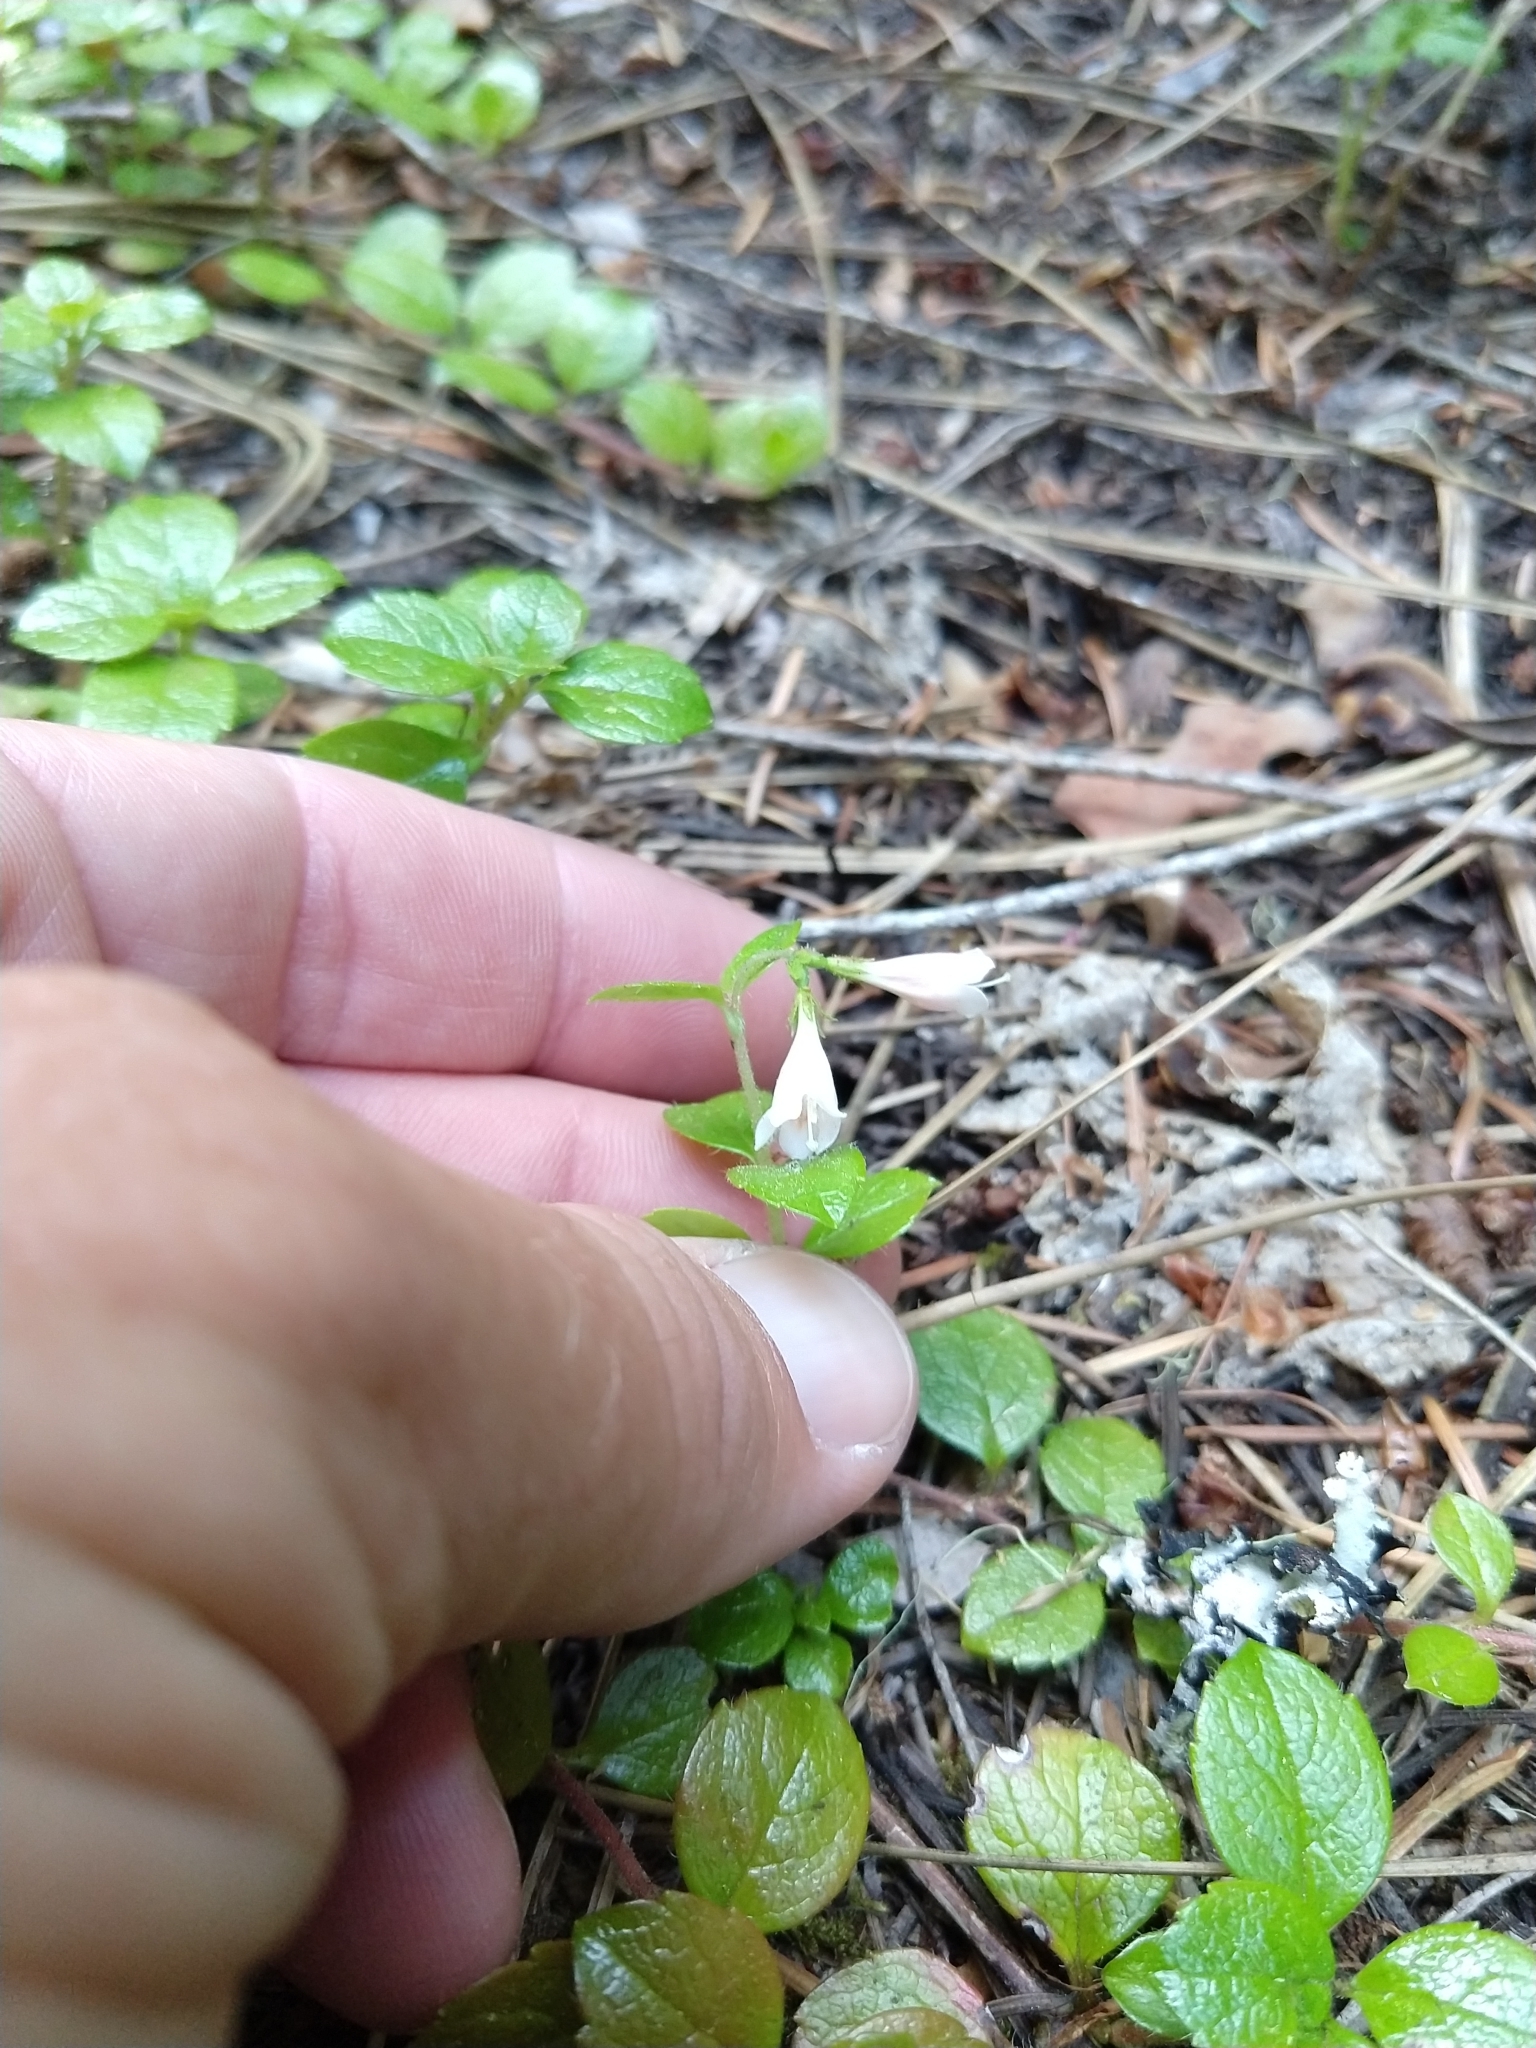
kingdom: Plantae
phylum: Tracheophyta
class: Magnoliopsida
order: Dipsacales
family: Caprifoliaceae
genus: Linnaea
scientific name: Linnaea borealis
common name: Twinflower
